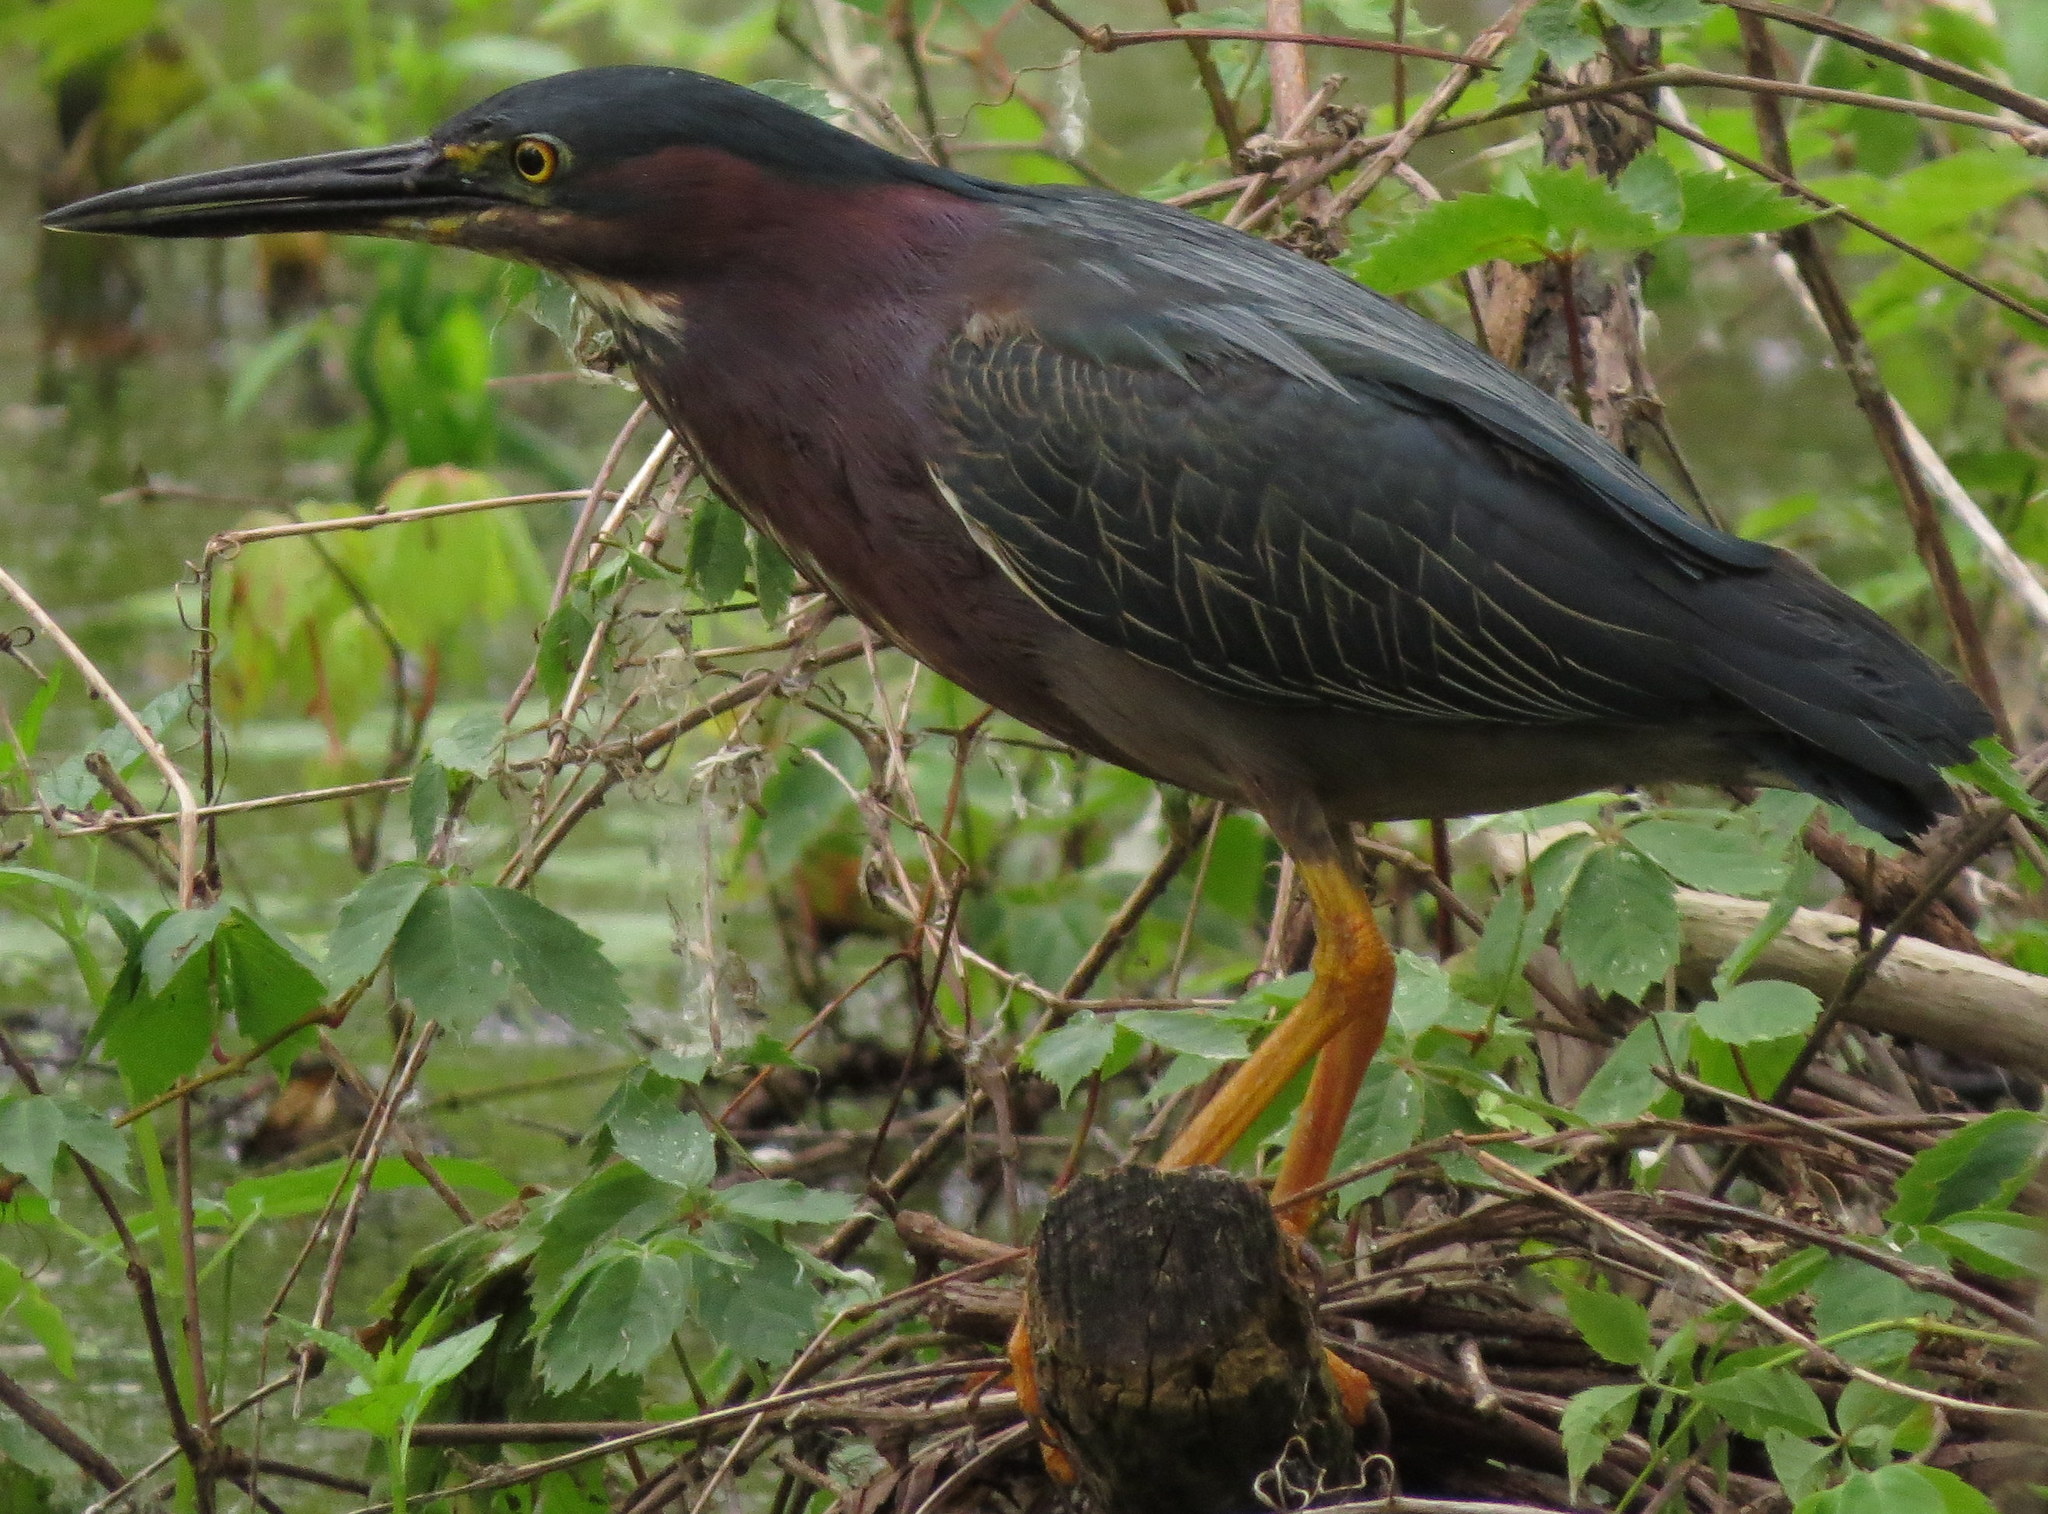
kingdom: Animalia
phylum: Chordata
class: Aves
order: Pelecaniformes
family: Ardeidae
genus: Butorides
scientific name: Butorides virescens
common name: Green heron
